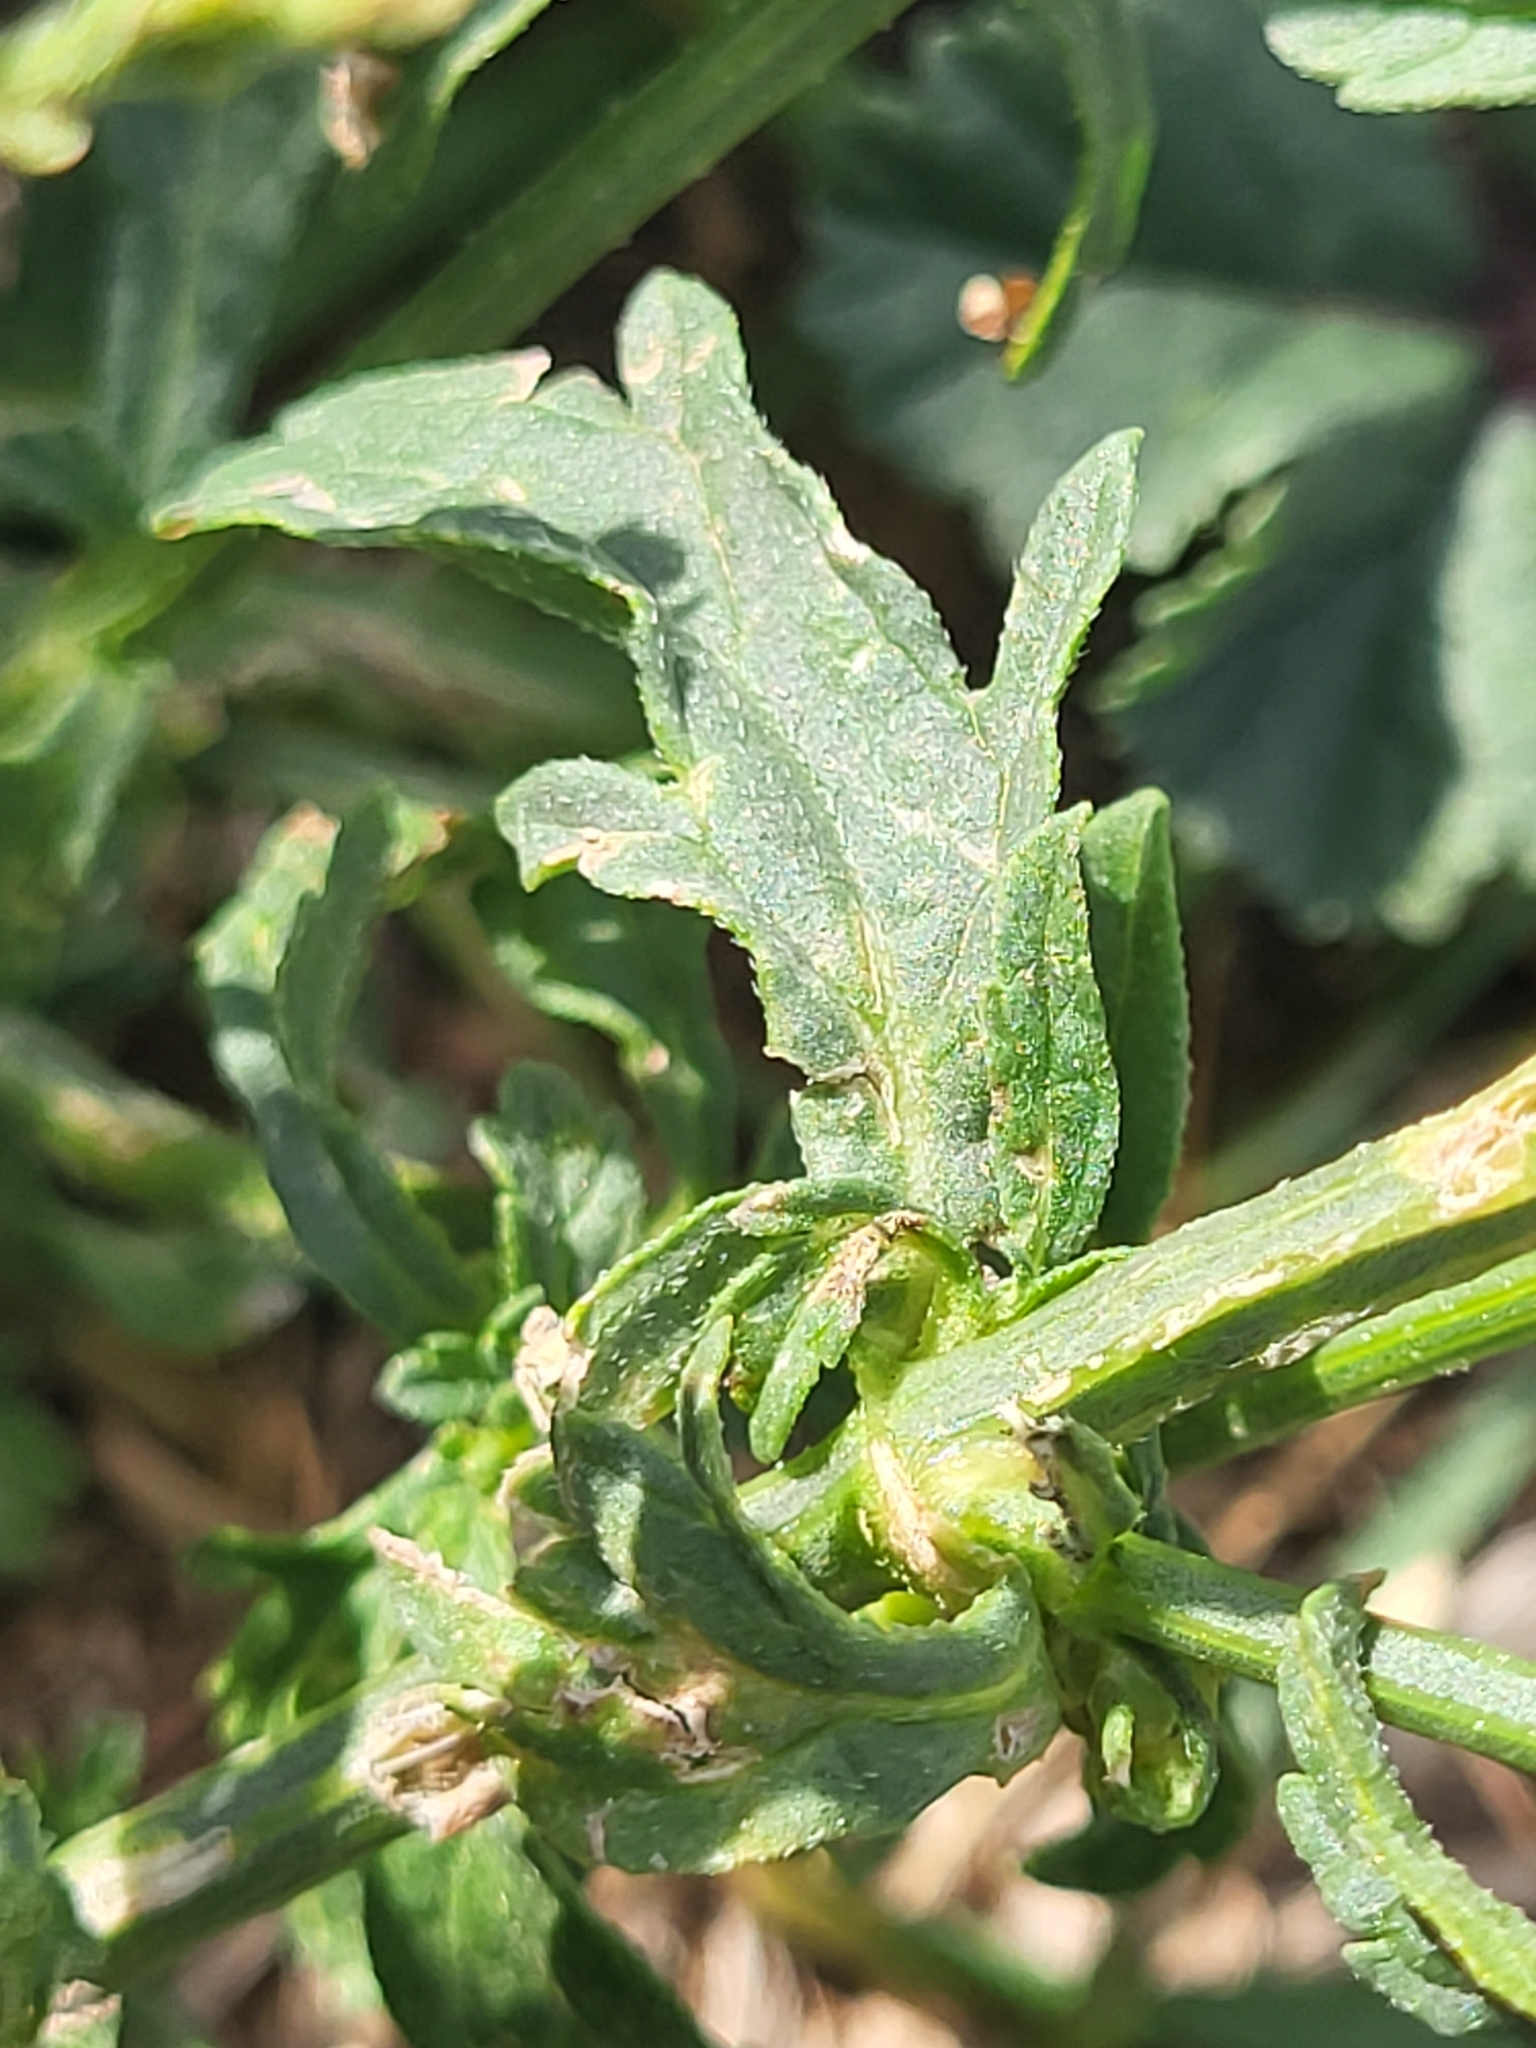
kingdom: Plantae
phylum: Tracheophyta
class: Magnoliopsida
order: Lamiales
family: Verbenaceae
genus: Verbena
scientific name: Verbena officinalis
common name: Vervain
